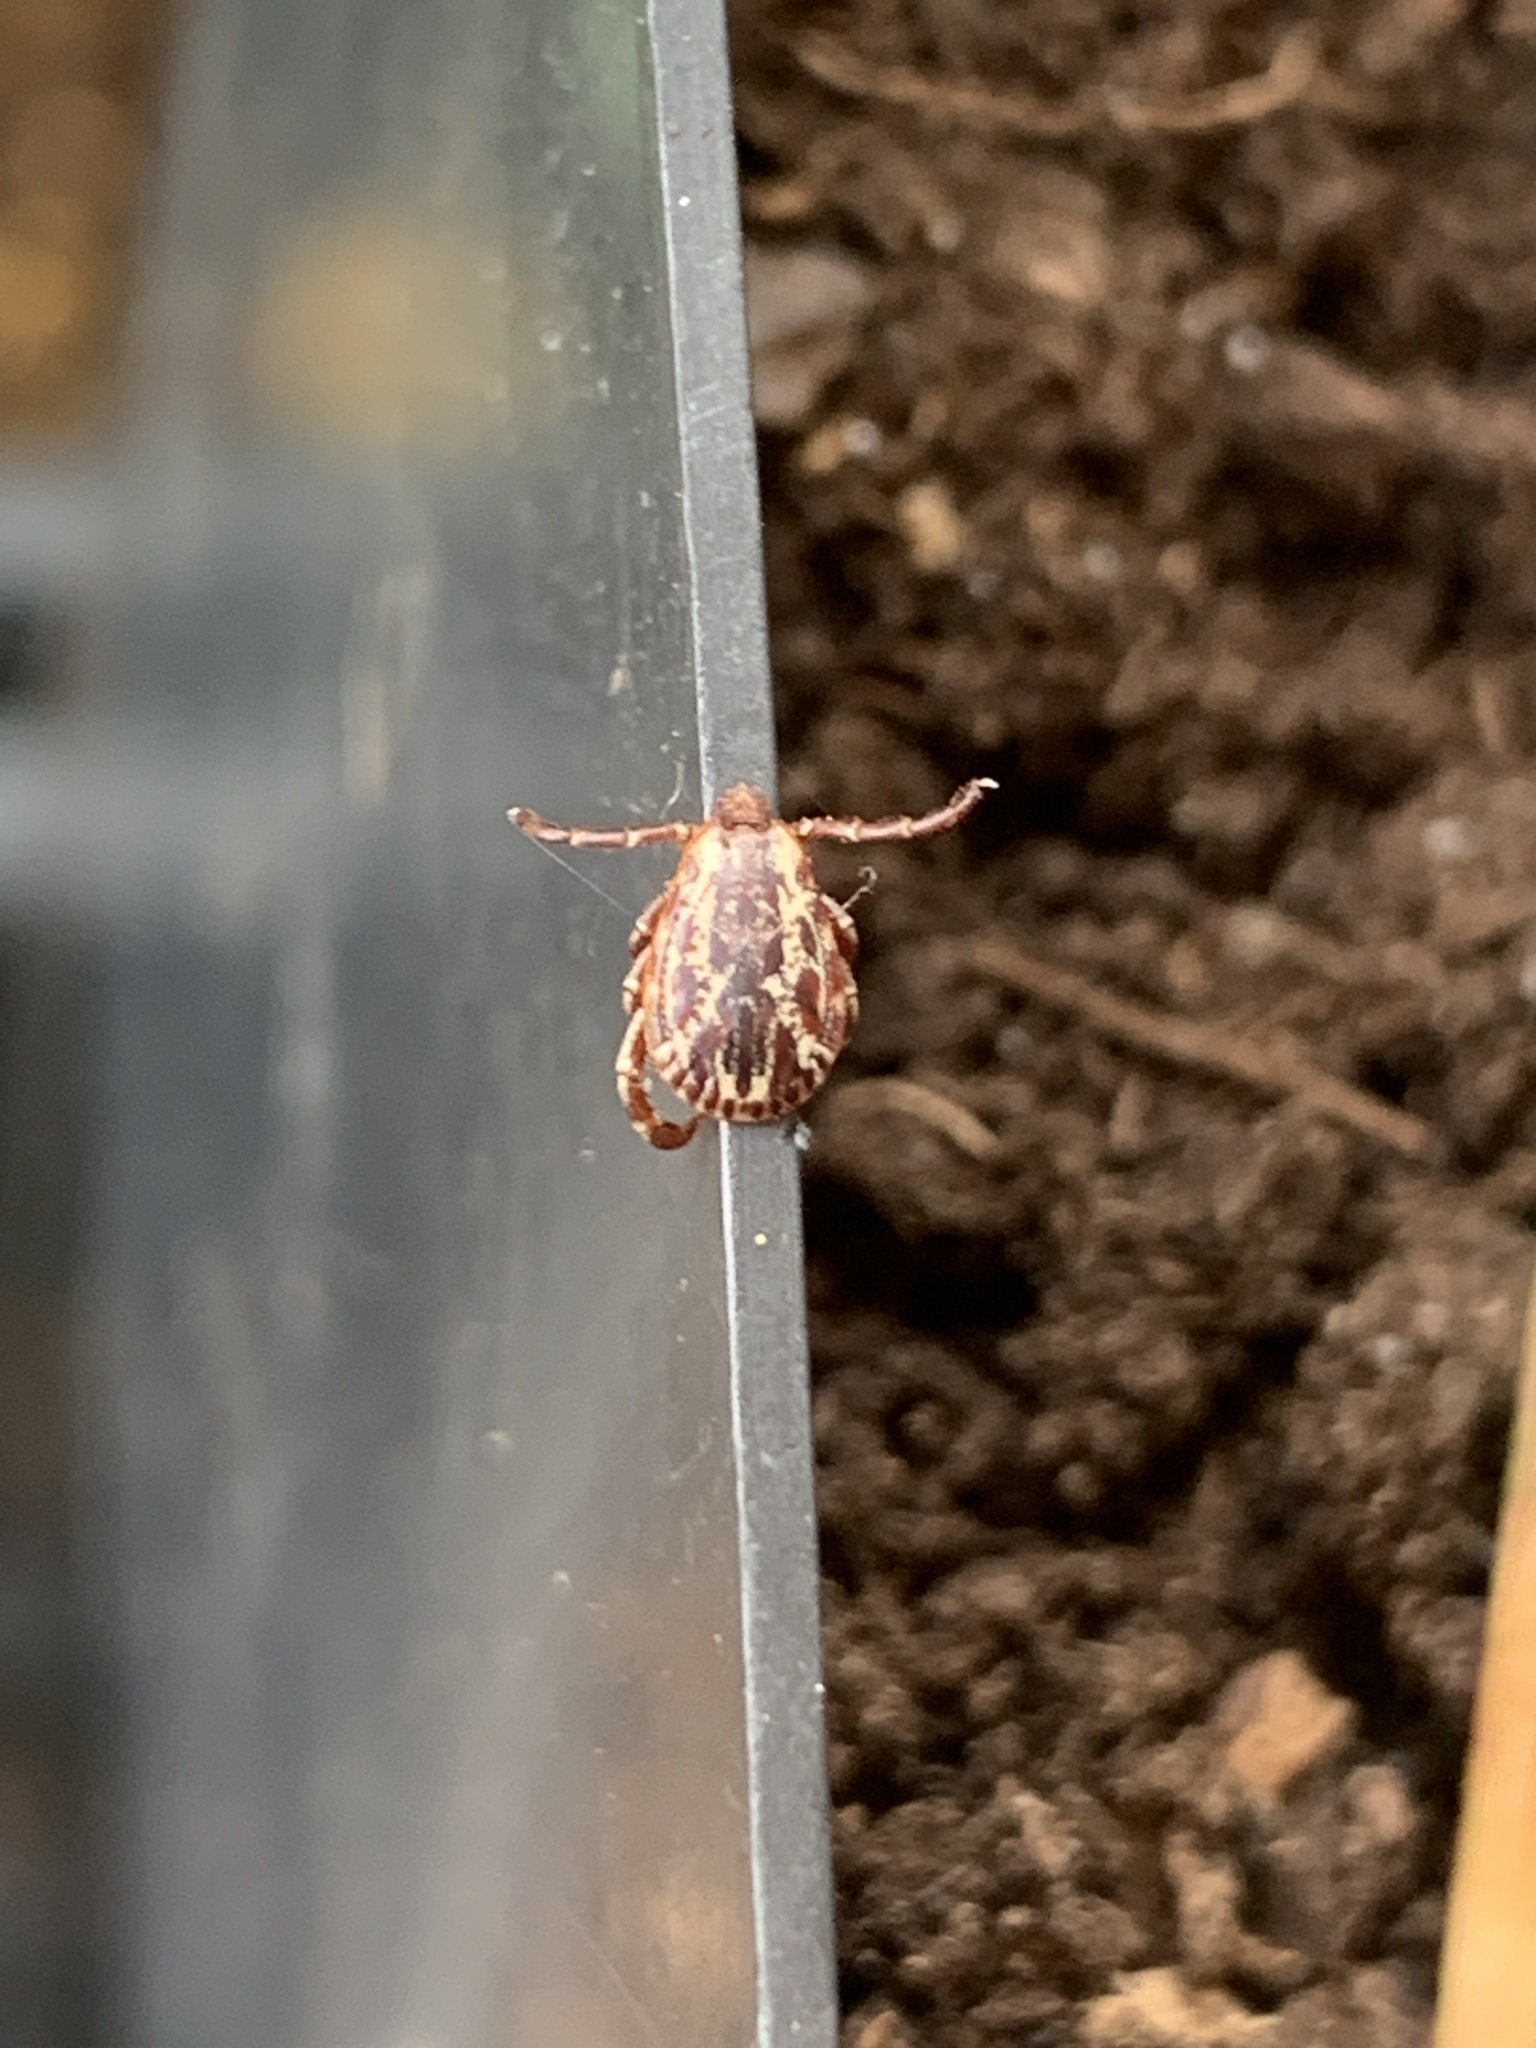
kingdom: Animalia
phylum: Arthropoda
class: Arachnida
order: Ixodida
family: Ixodidae
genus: Dermacentor
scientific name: Dermacentor variabilis
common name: American dog tick
